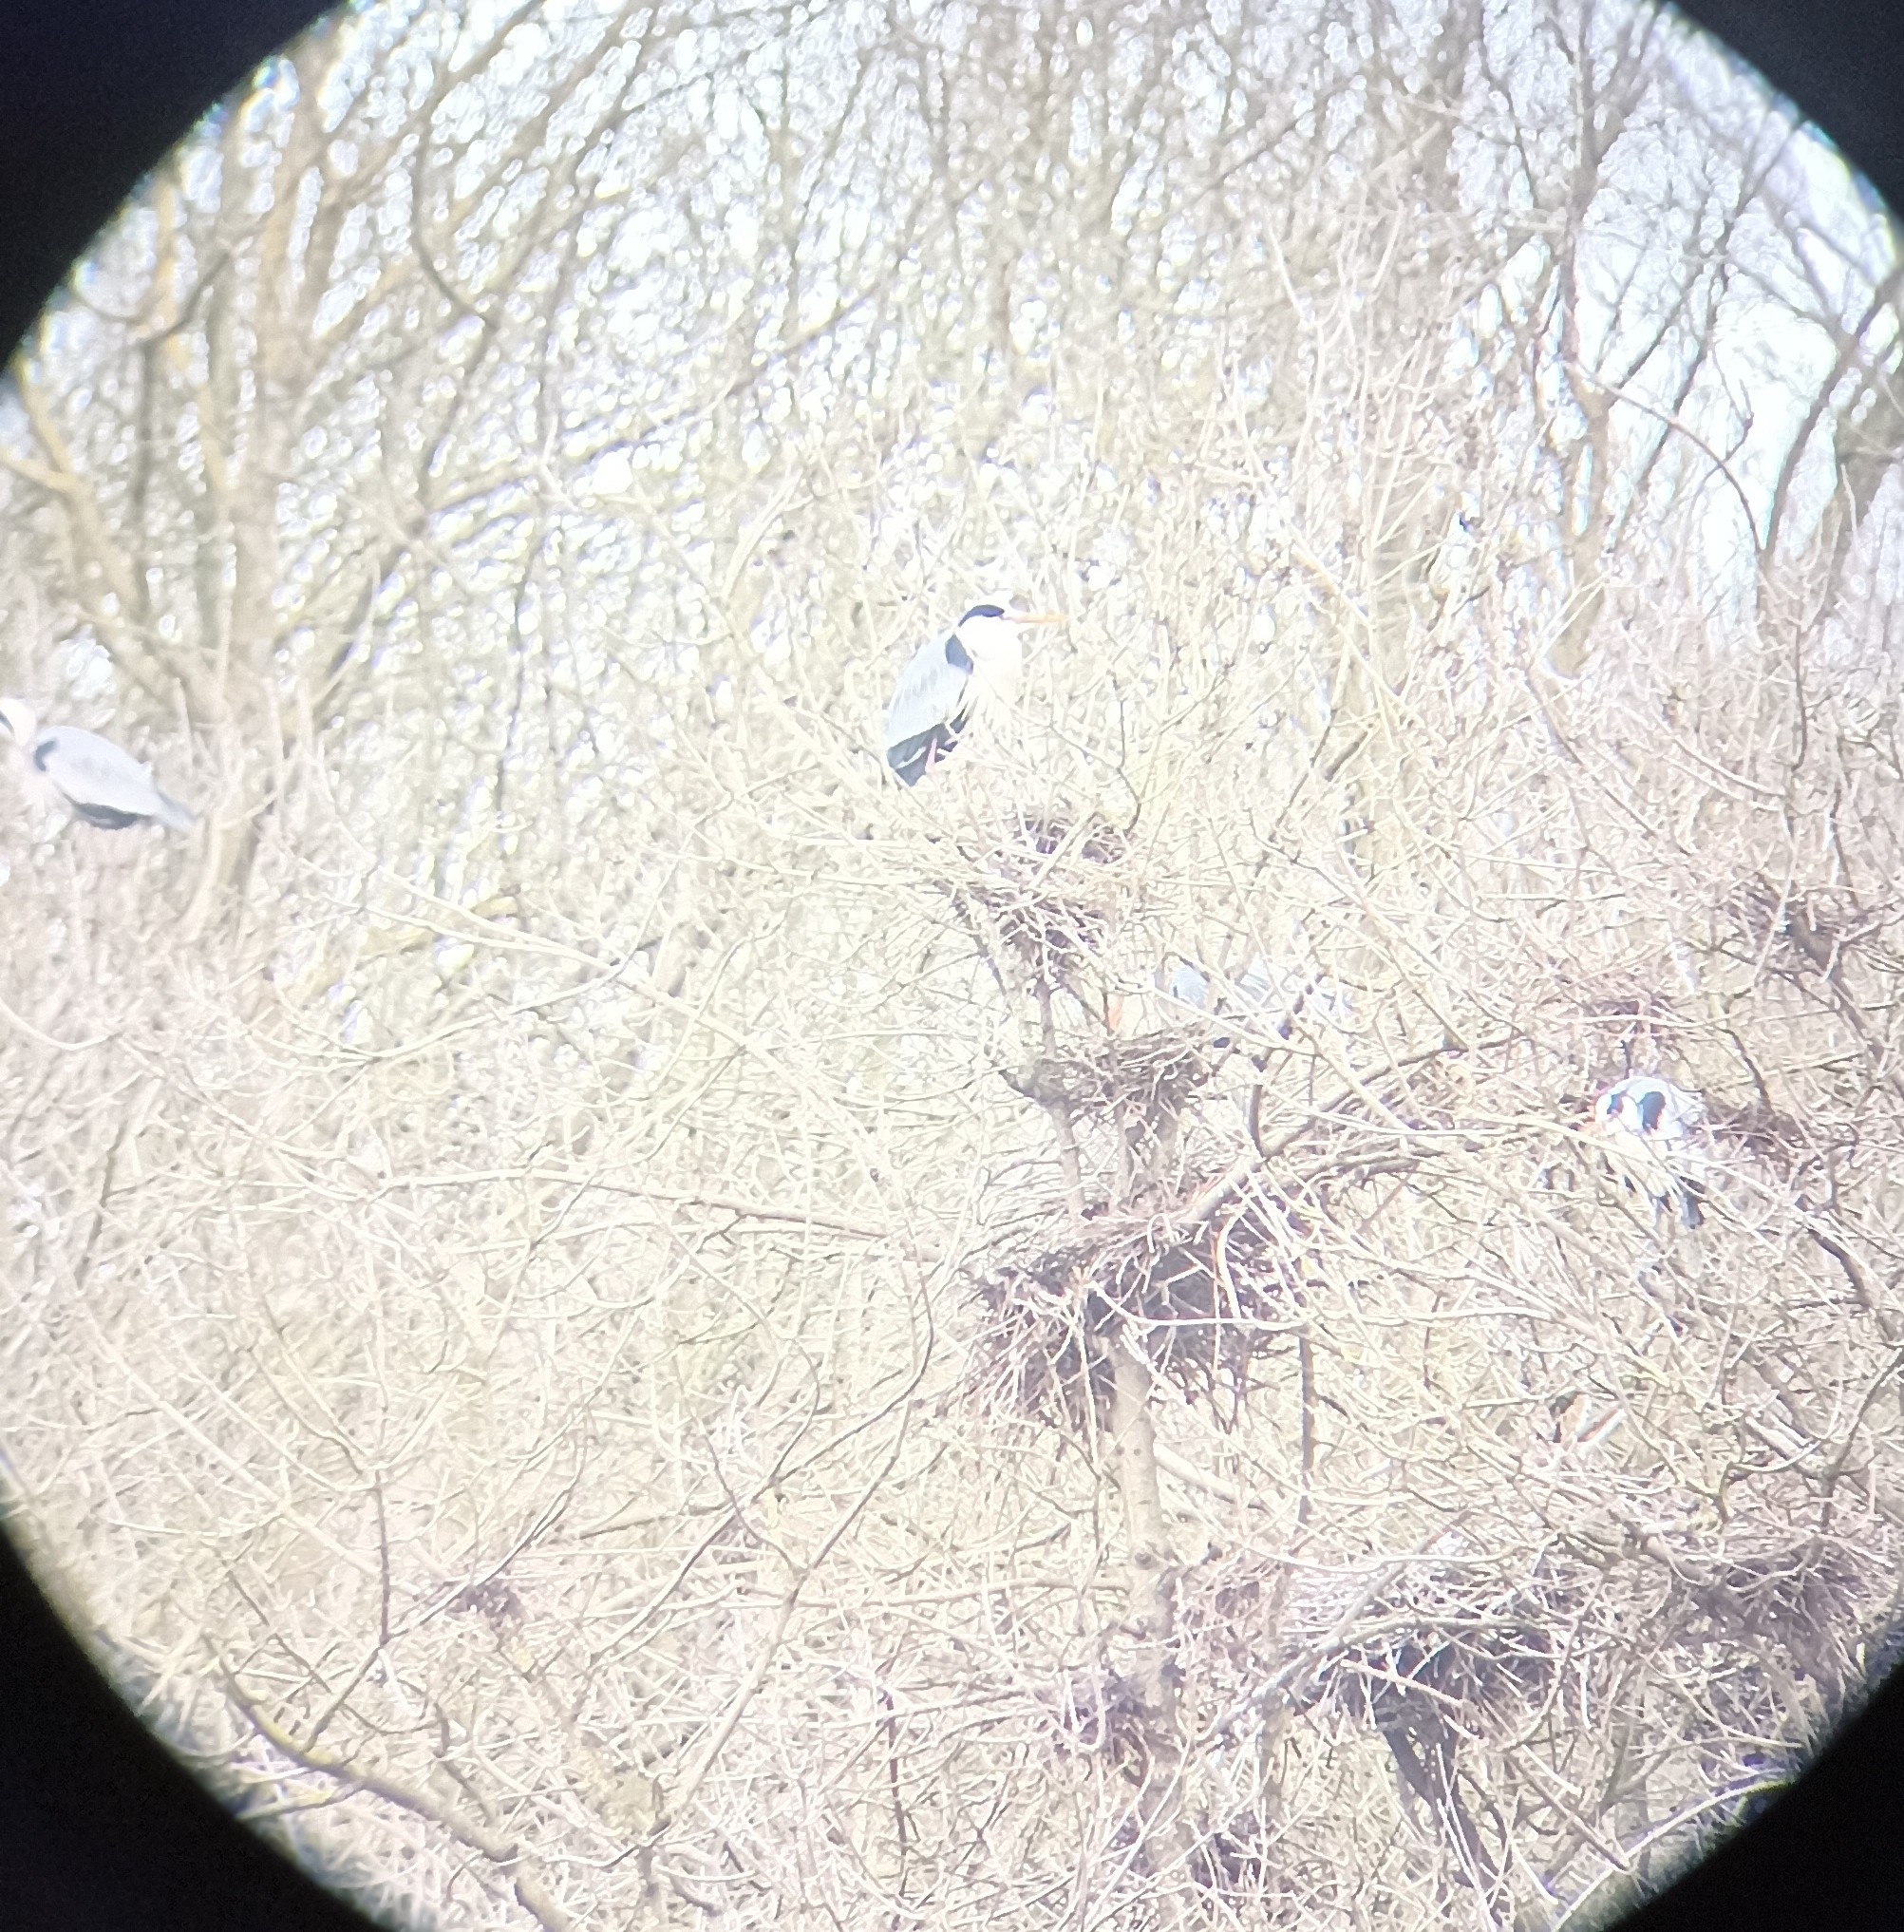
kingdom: Animalia
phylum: Chordata
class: Aves
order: Pelecaniformes
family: Ardeidae
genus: Ardea
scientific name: Ardea cinerea
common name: Grey heron
